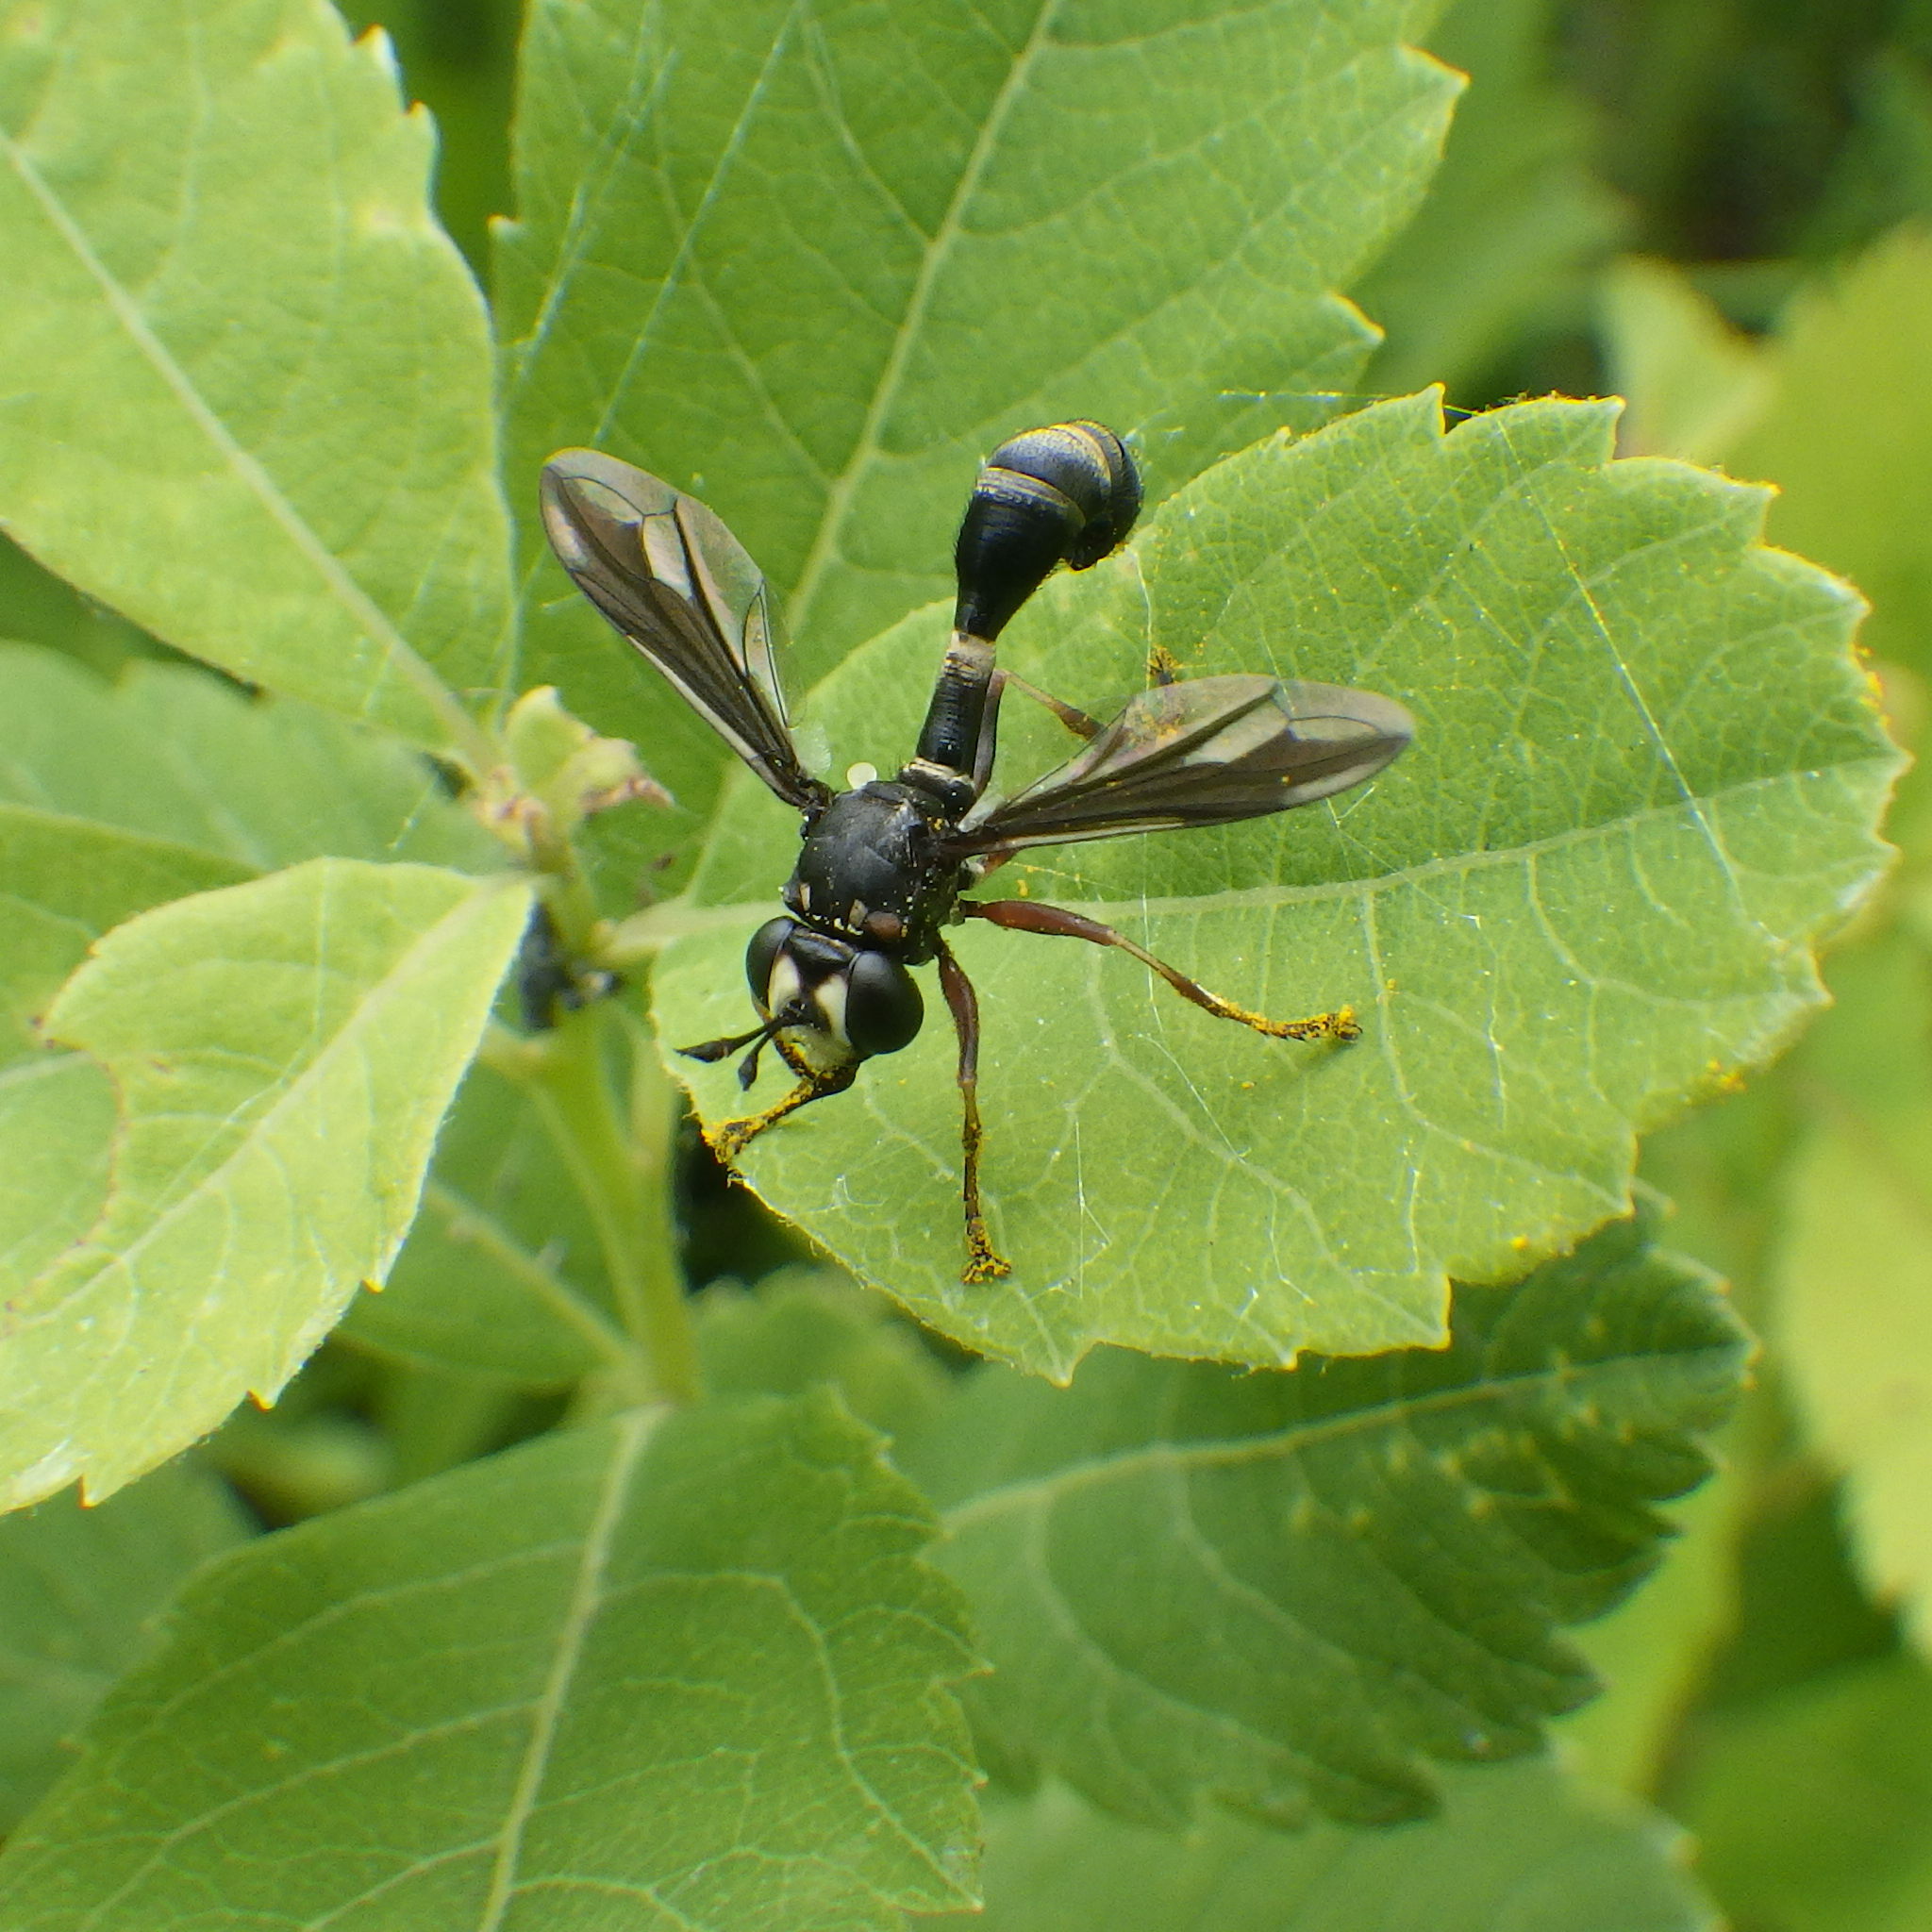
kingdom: Animalia
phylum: Arthropoda
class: Insecta
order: Diptera
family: Conopidae
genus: Physocephala
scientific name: Physocephala furcillata
